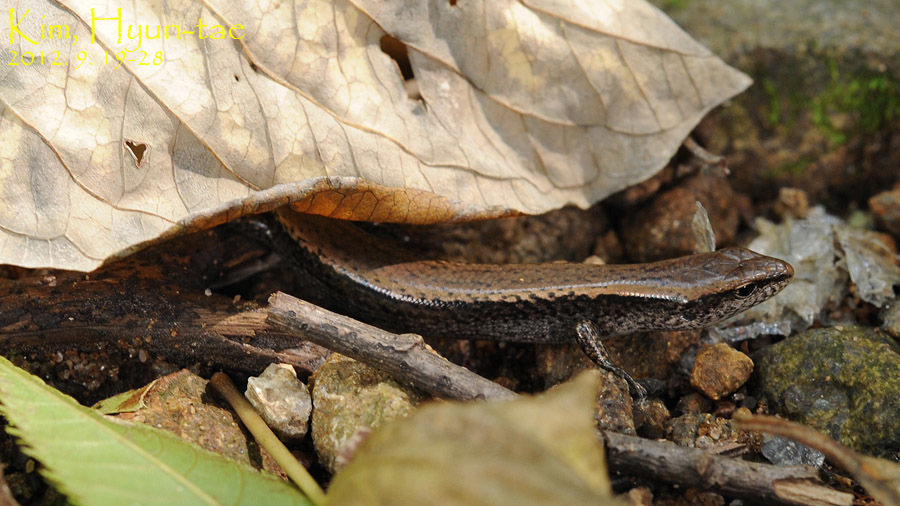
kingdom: Animalia
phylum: Chordata
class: Squamata
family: Scincidae
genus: Scincella
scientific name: Scincella vandenburghi
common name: Tsushima smooth skink
